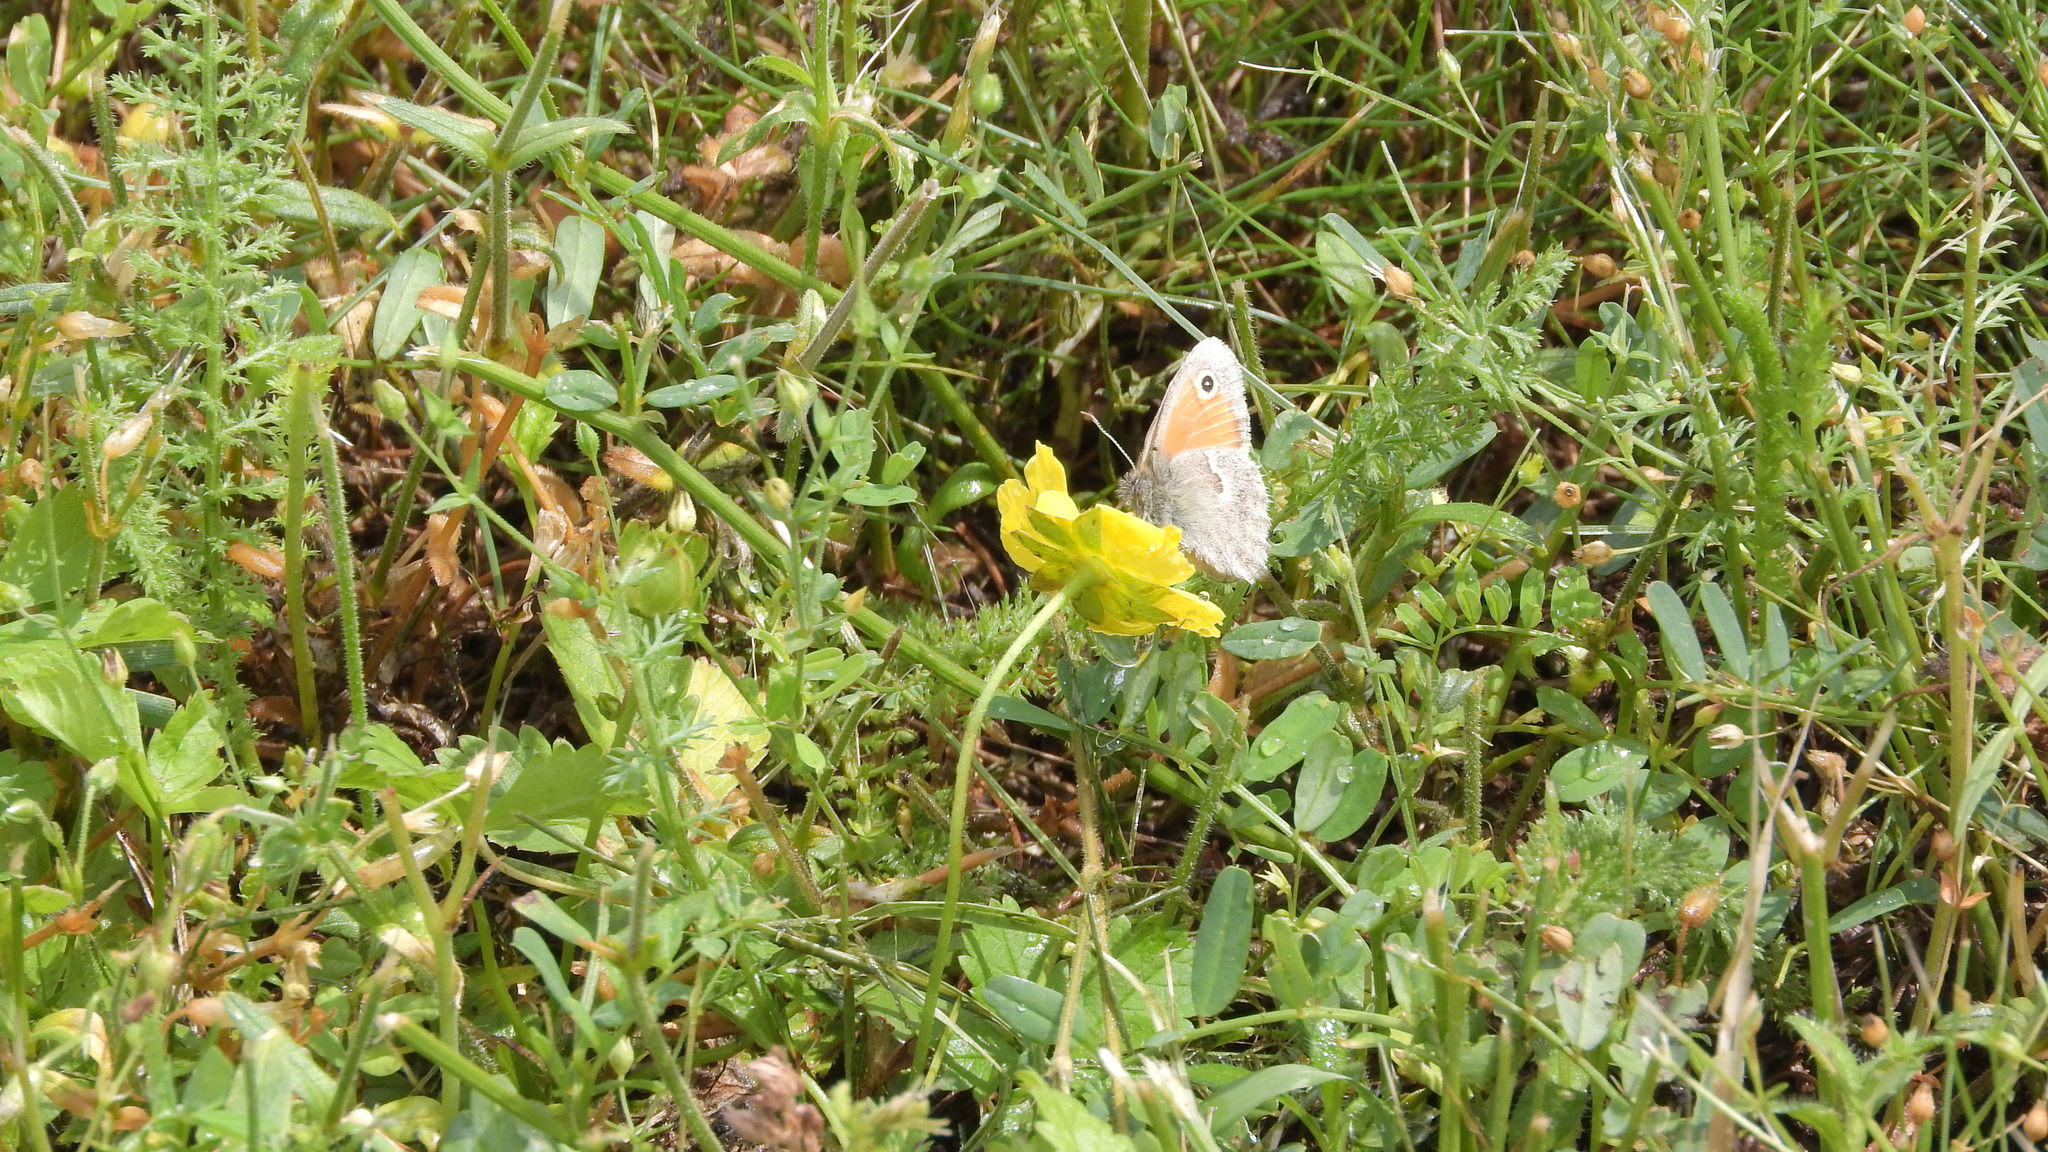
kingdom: Animalia
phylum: Arthropoda
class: Insecta
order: Lepidoptera
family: Nymphalidae
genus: Coenonympha
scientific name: Coenonympha pamphilus
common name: Small heath
